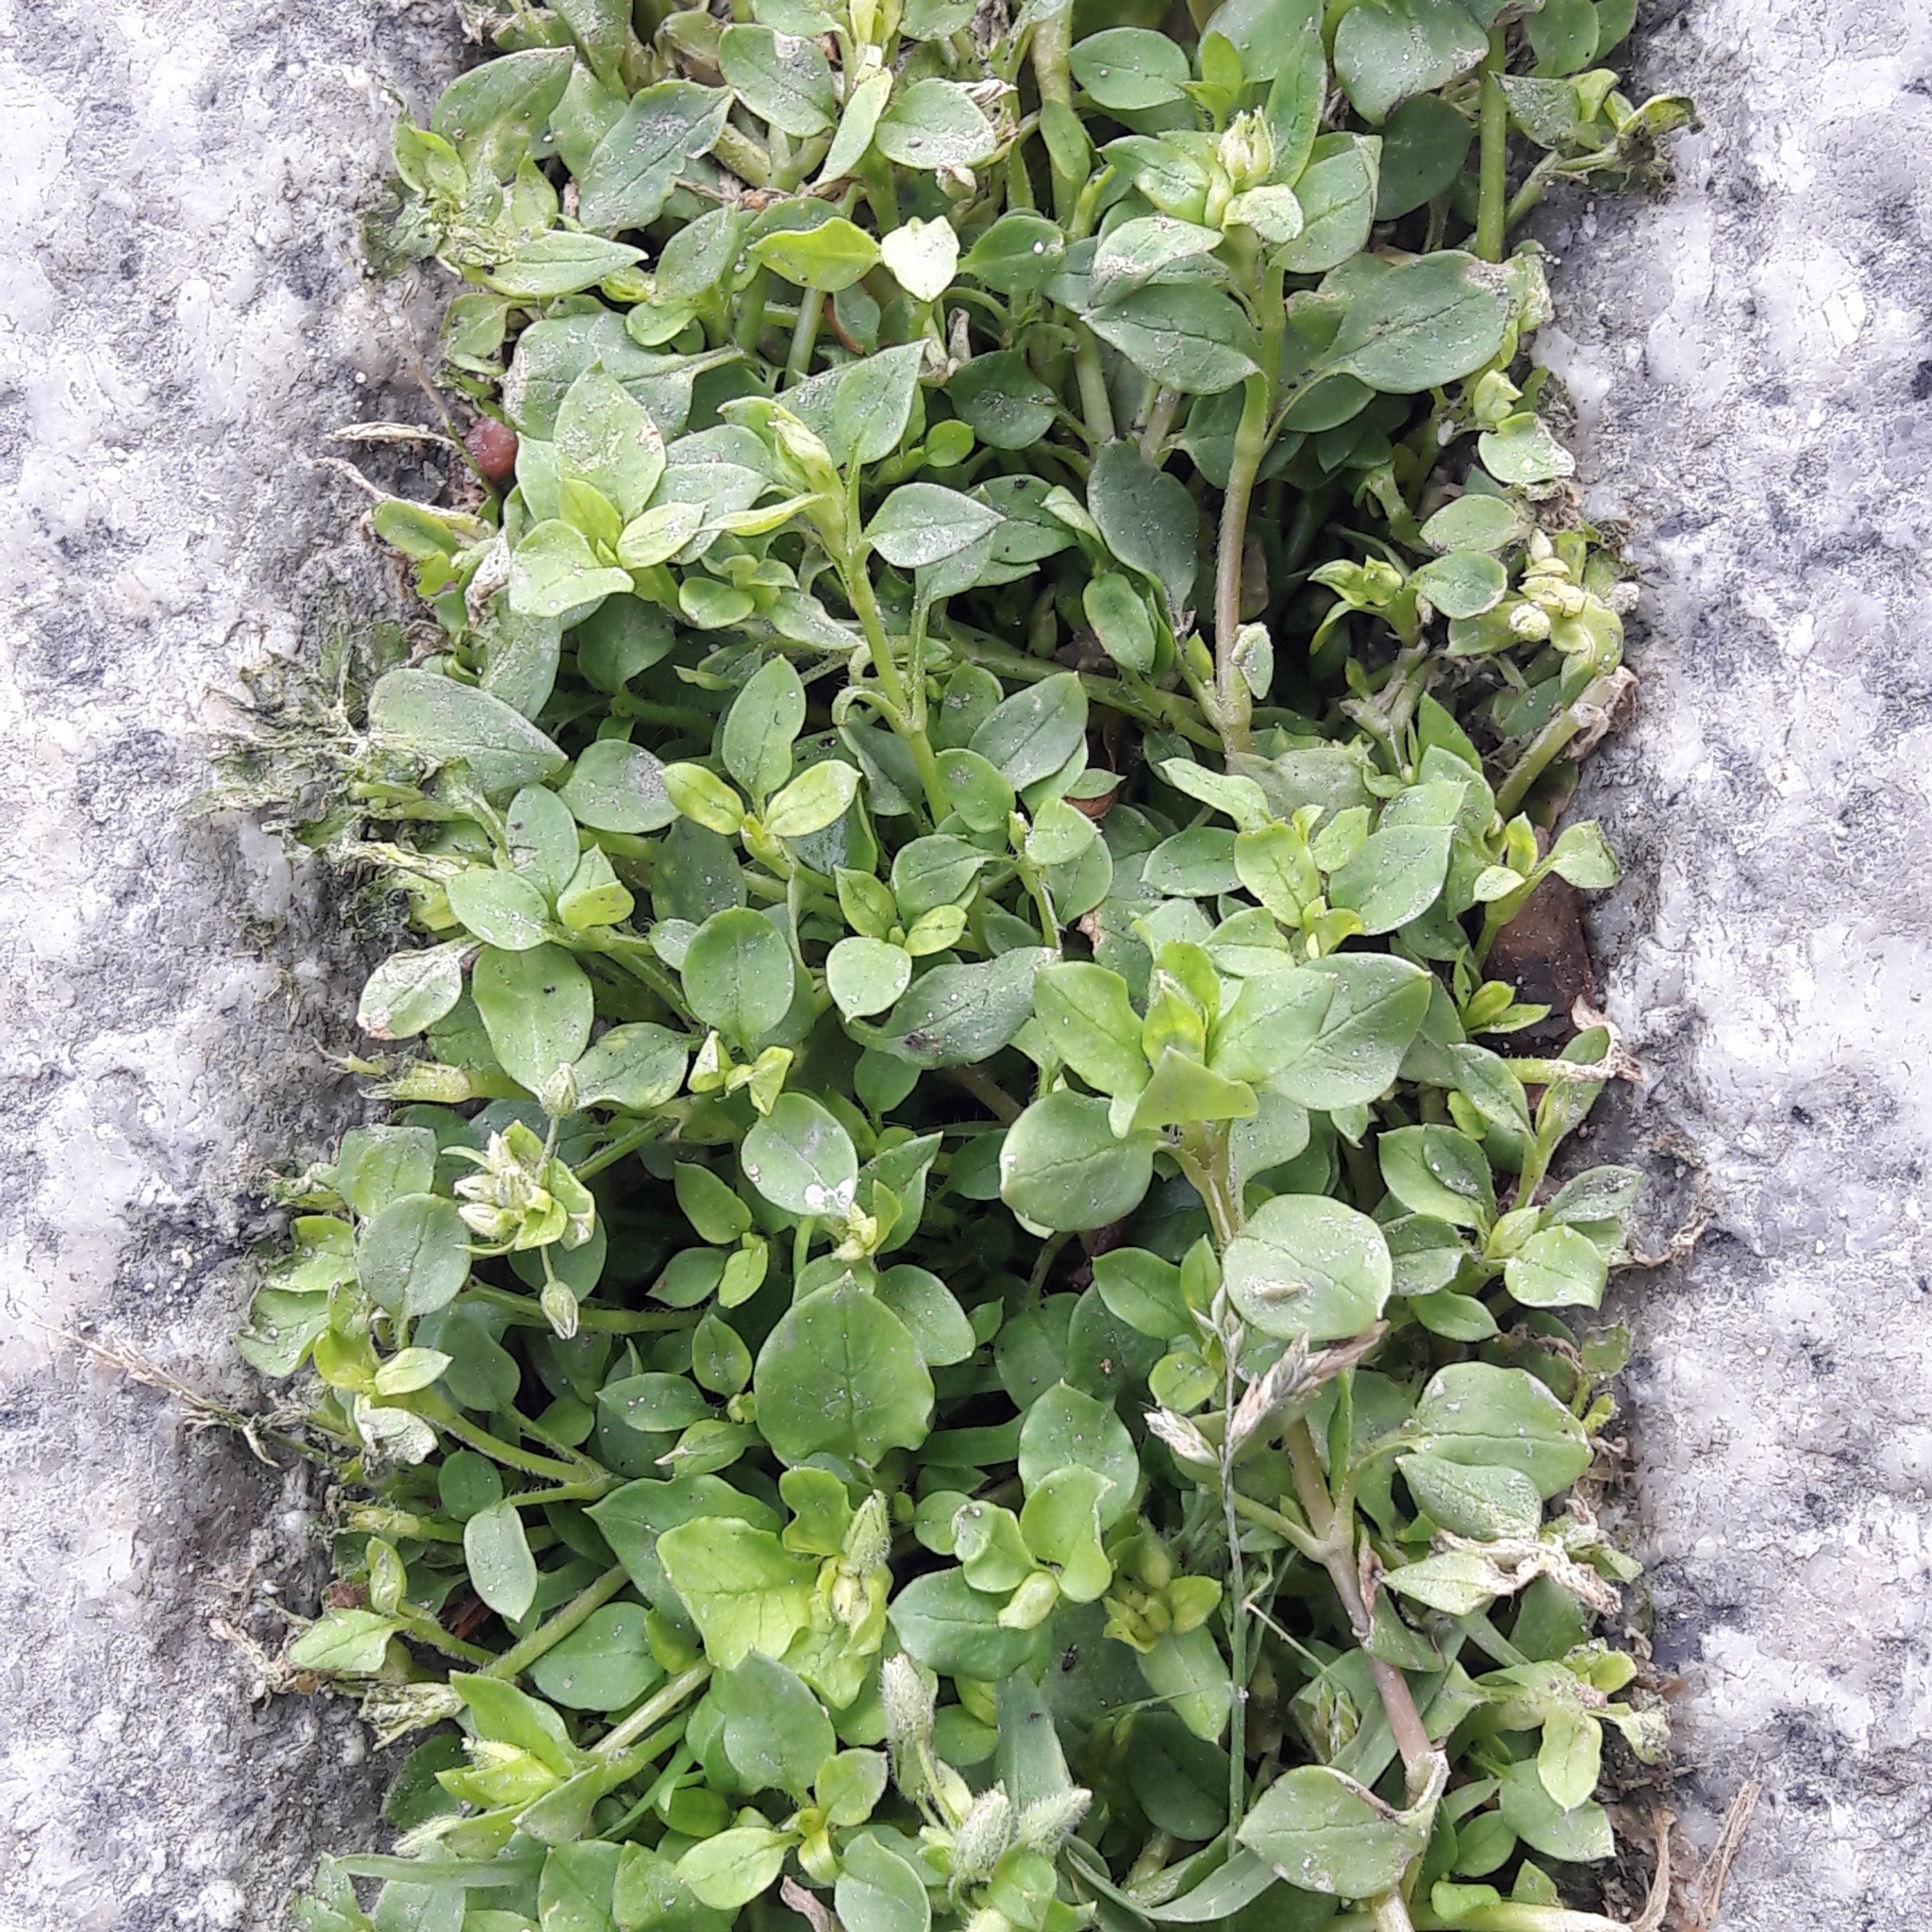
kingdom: Plantae
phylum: Tracheophyta
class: Magnoliopsida
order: Caryophyllales
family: Caryophyllaceae
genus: Stellaria
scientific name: Stellaria media
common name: Common chickweed
